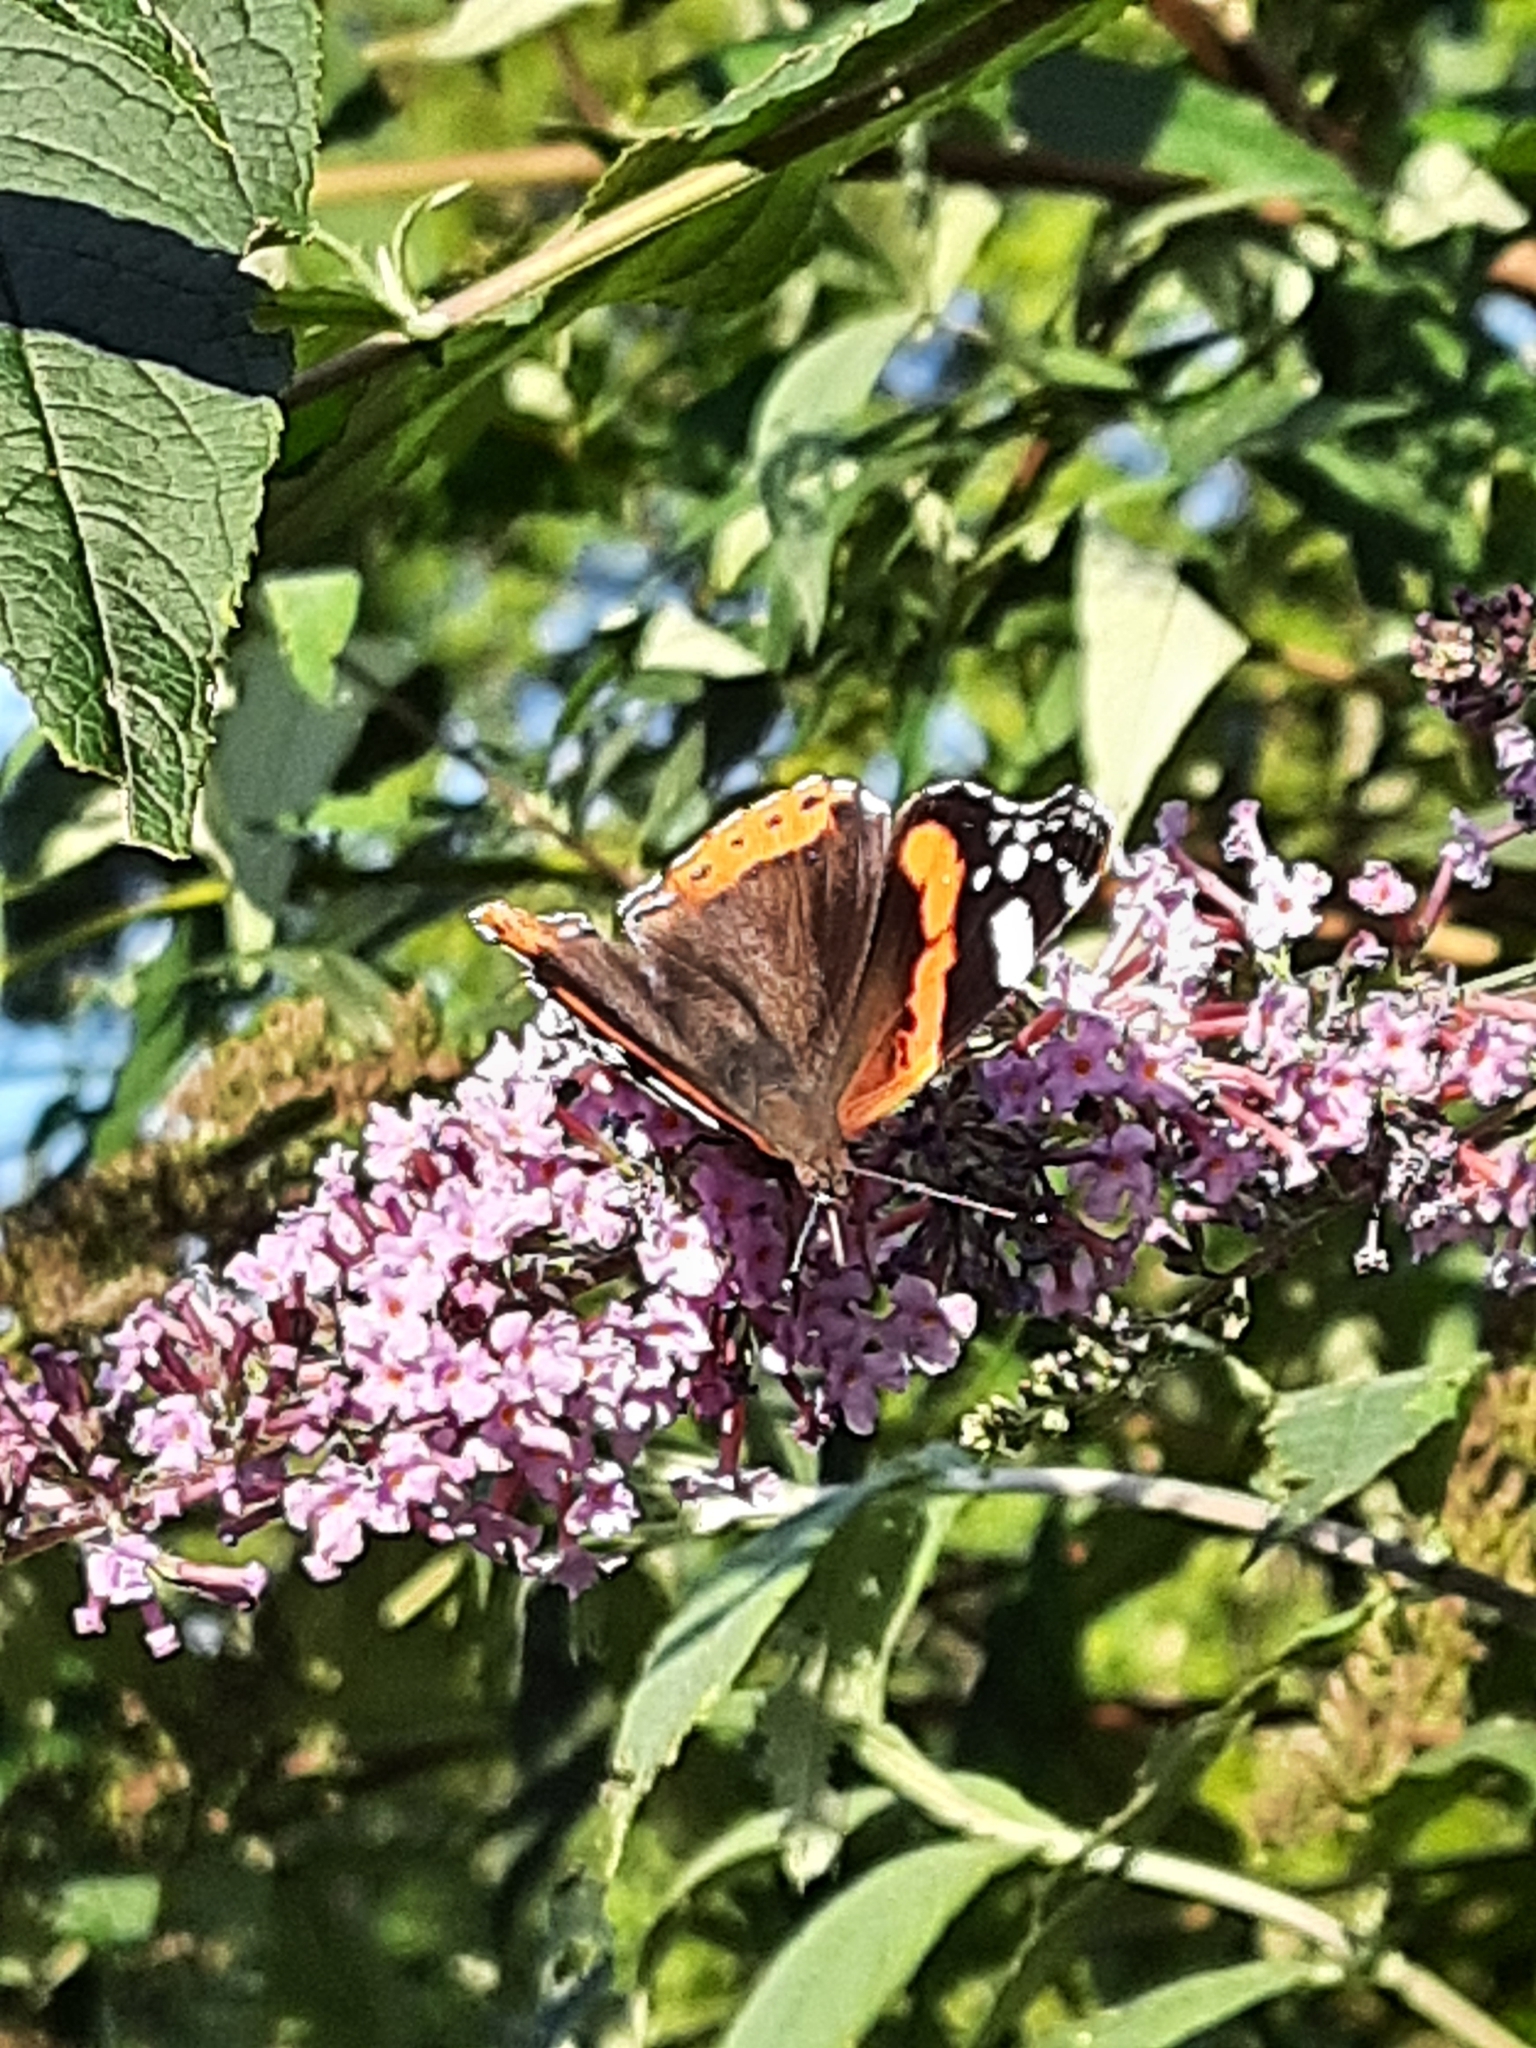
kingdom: Animalia
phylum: Arthropoda
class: Insecta
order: Lepidoptera
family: Nymphalidae
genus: Vanessa
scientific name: Vanessa atalanta
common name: Red admiral
